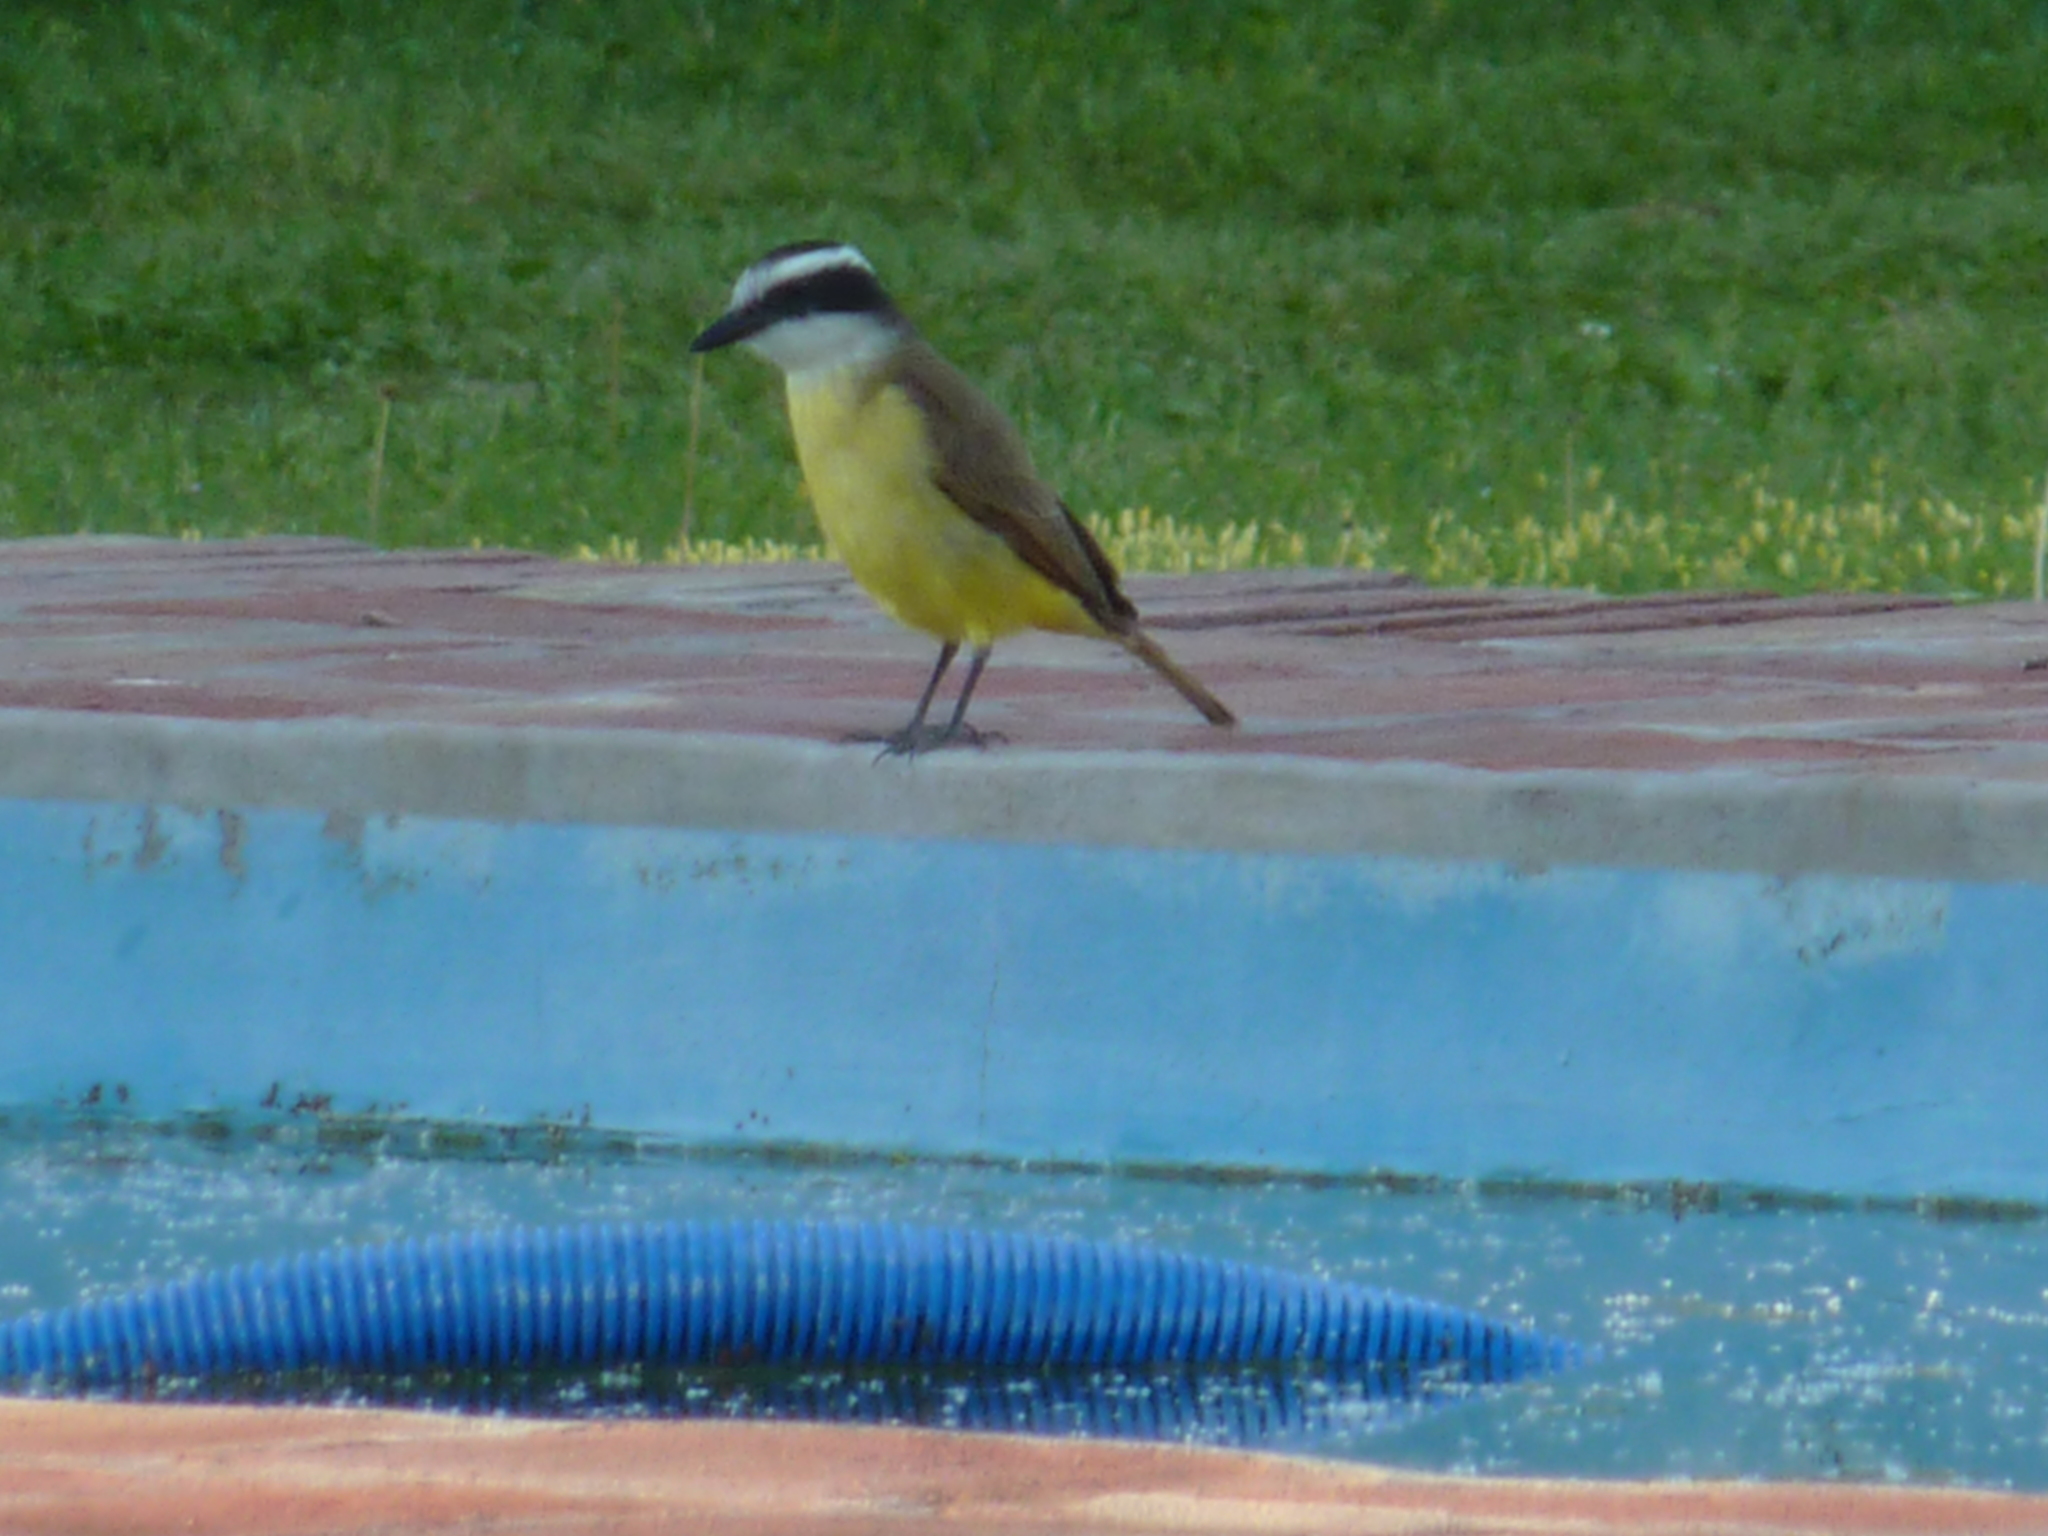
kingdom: Animalia
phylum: Chordata
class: Aves
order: Passeriformes
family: Tyrannidae
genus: Pitangus
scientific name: Pitangus sulphuratus
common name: Great kiskadee
